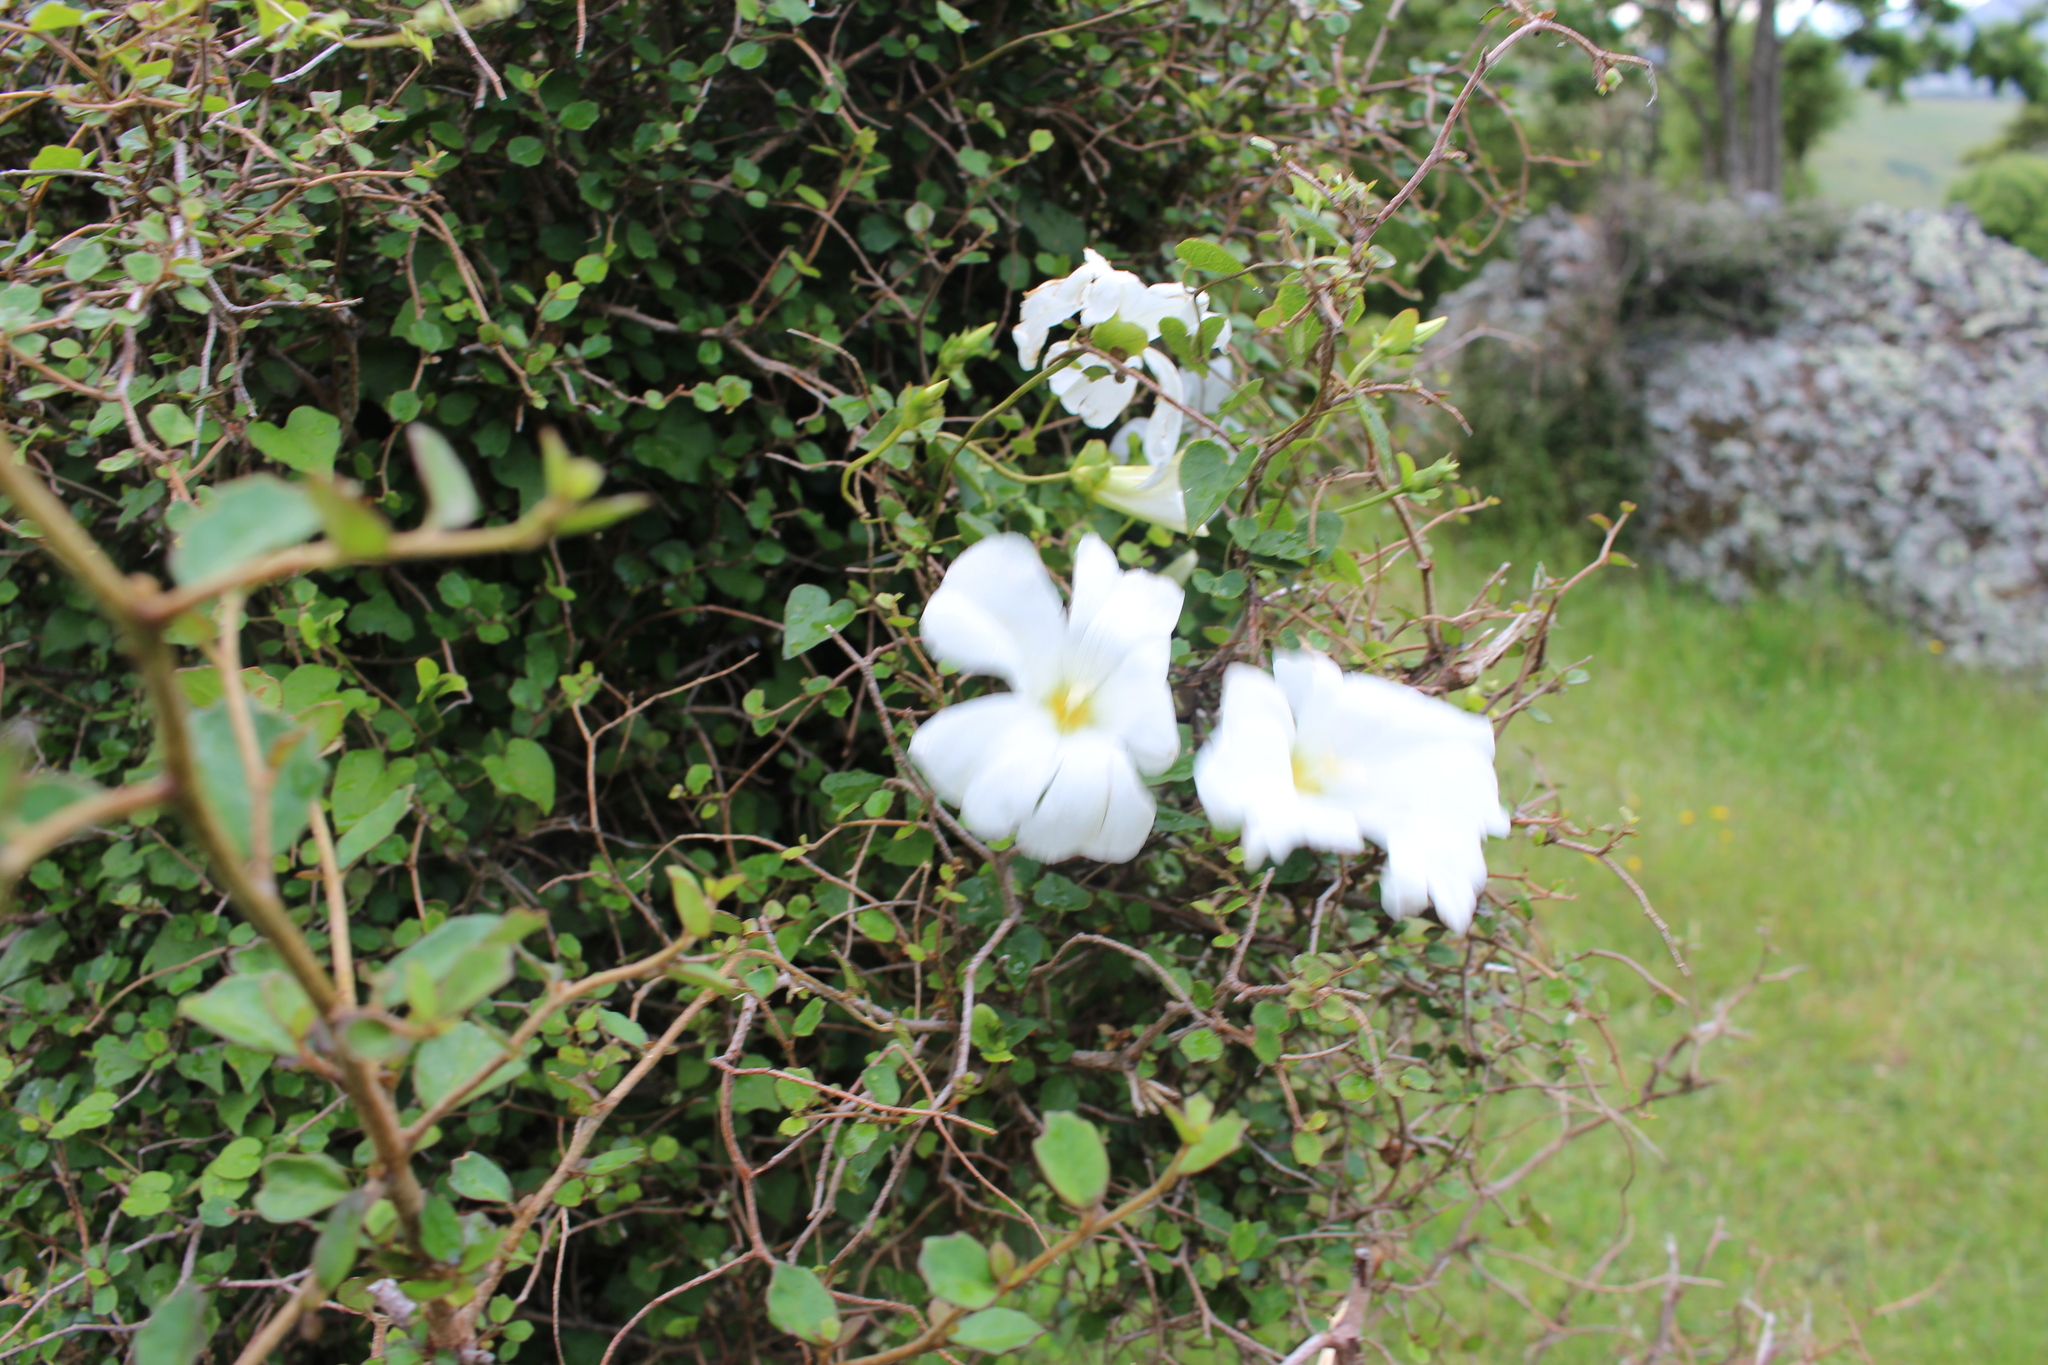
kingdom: Plantae
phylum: Tracheophyta
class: Magnoliopsida
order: Solanales
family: Convolvulaceae
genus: Calystegia
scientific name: Calystegia tuguriorum
